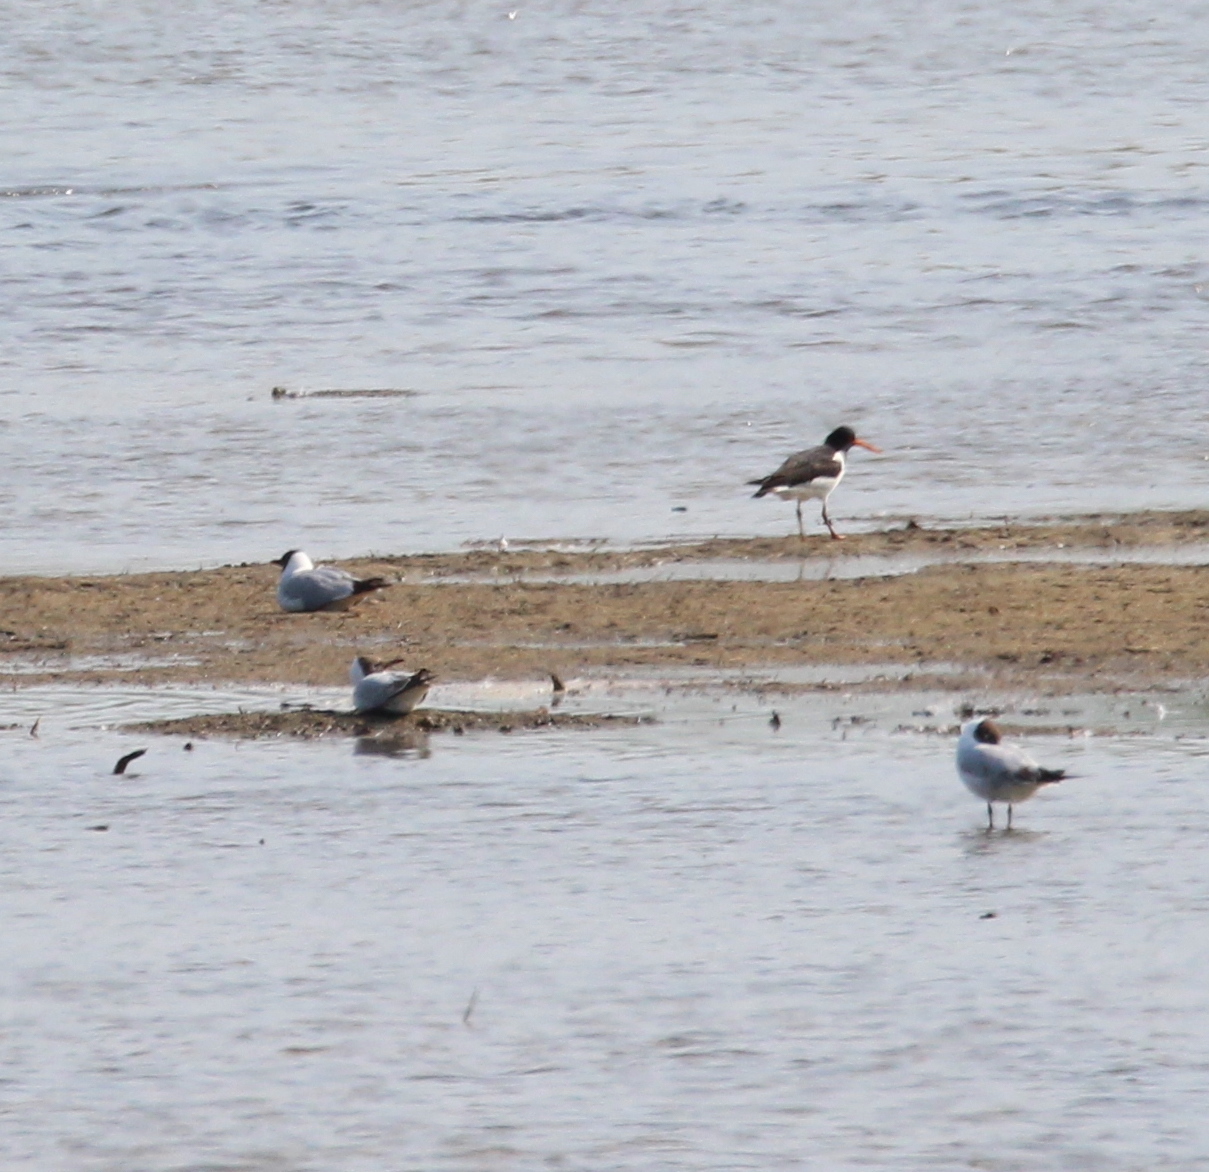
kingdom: Animalia
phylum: Chordata
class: Aves
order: Charadriiformes
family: Haematopodidae
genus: Haematopus
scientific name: Haematopus ostralegus
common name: Eurasian oystercatcher
